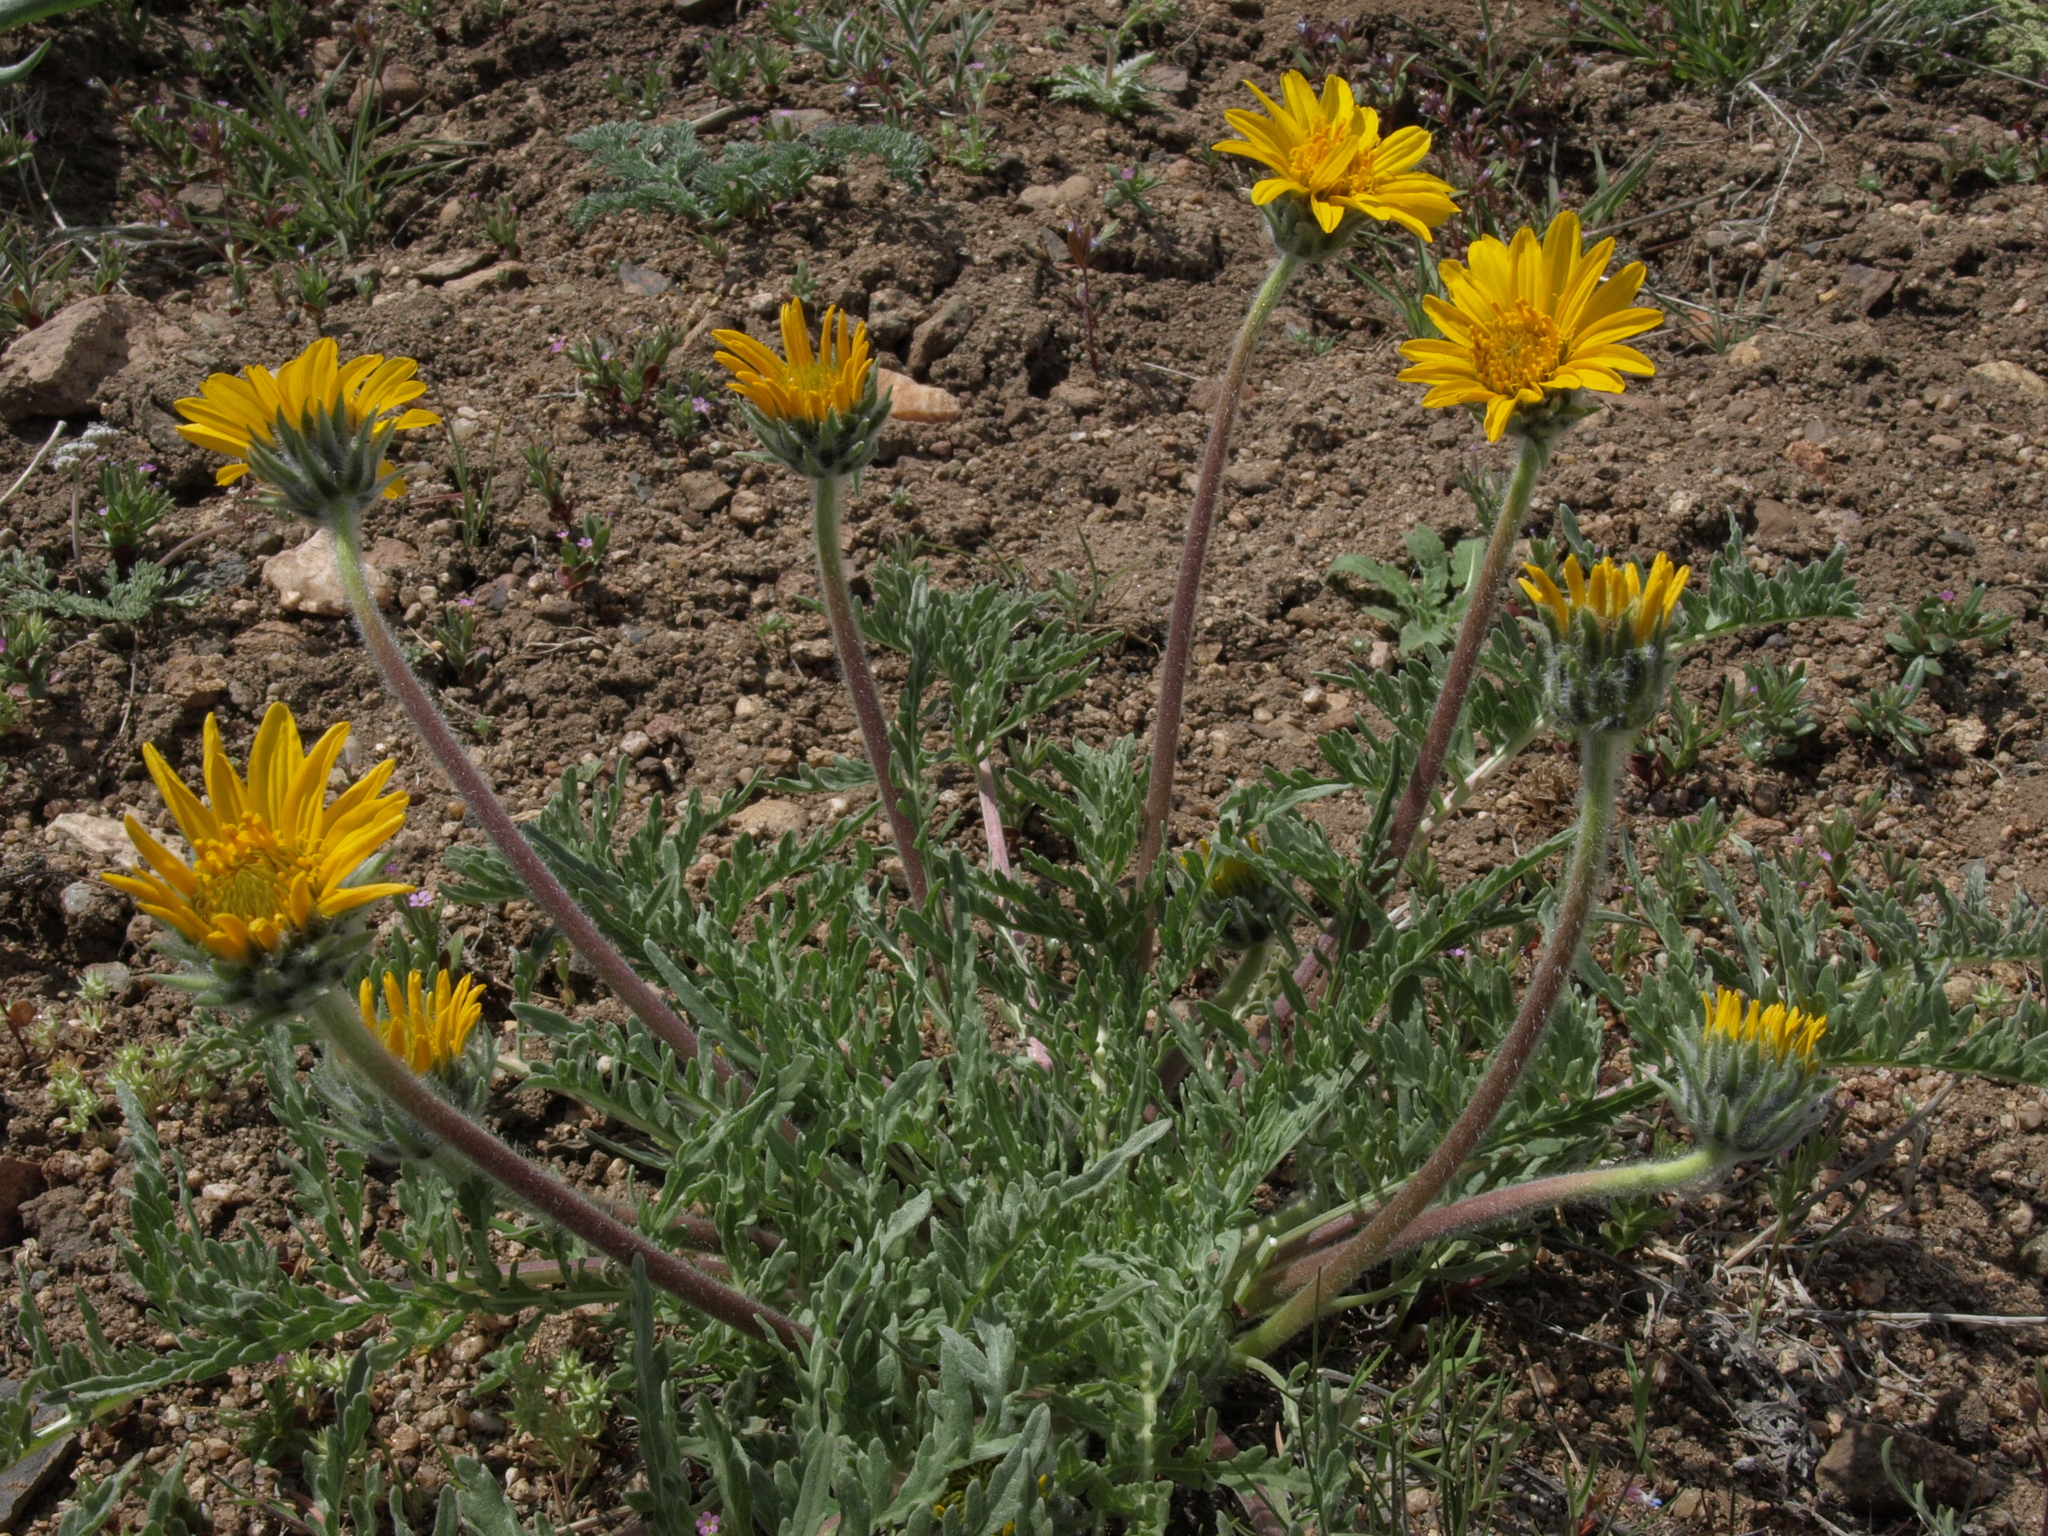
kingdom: Plantae
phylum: Tracheophyta
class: Magnoliopsida
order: Asterales
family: Asteraceae
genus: Balsamorhiza
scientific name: Balsamorhiza hookeri
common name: Hooker's balsamroot
